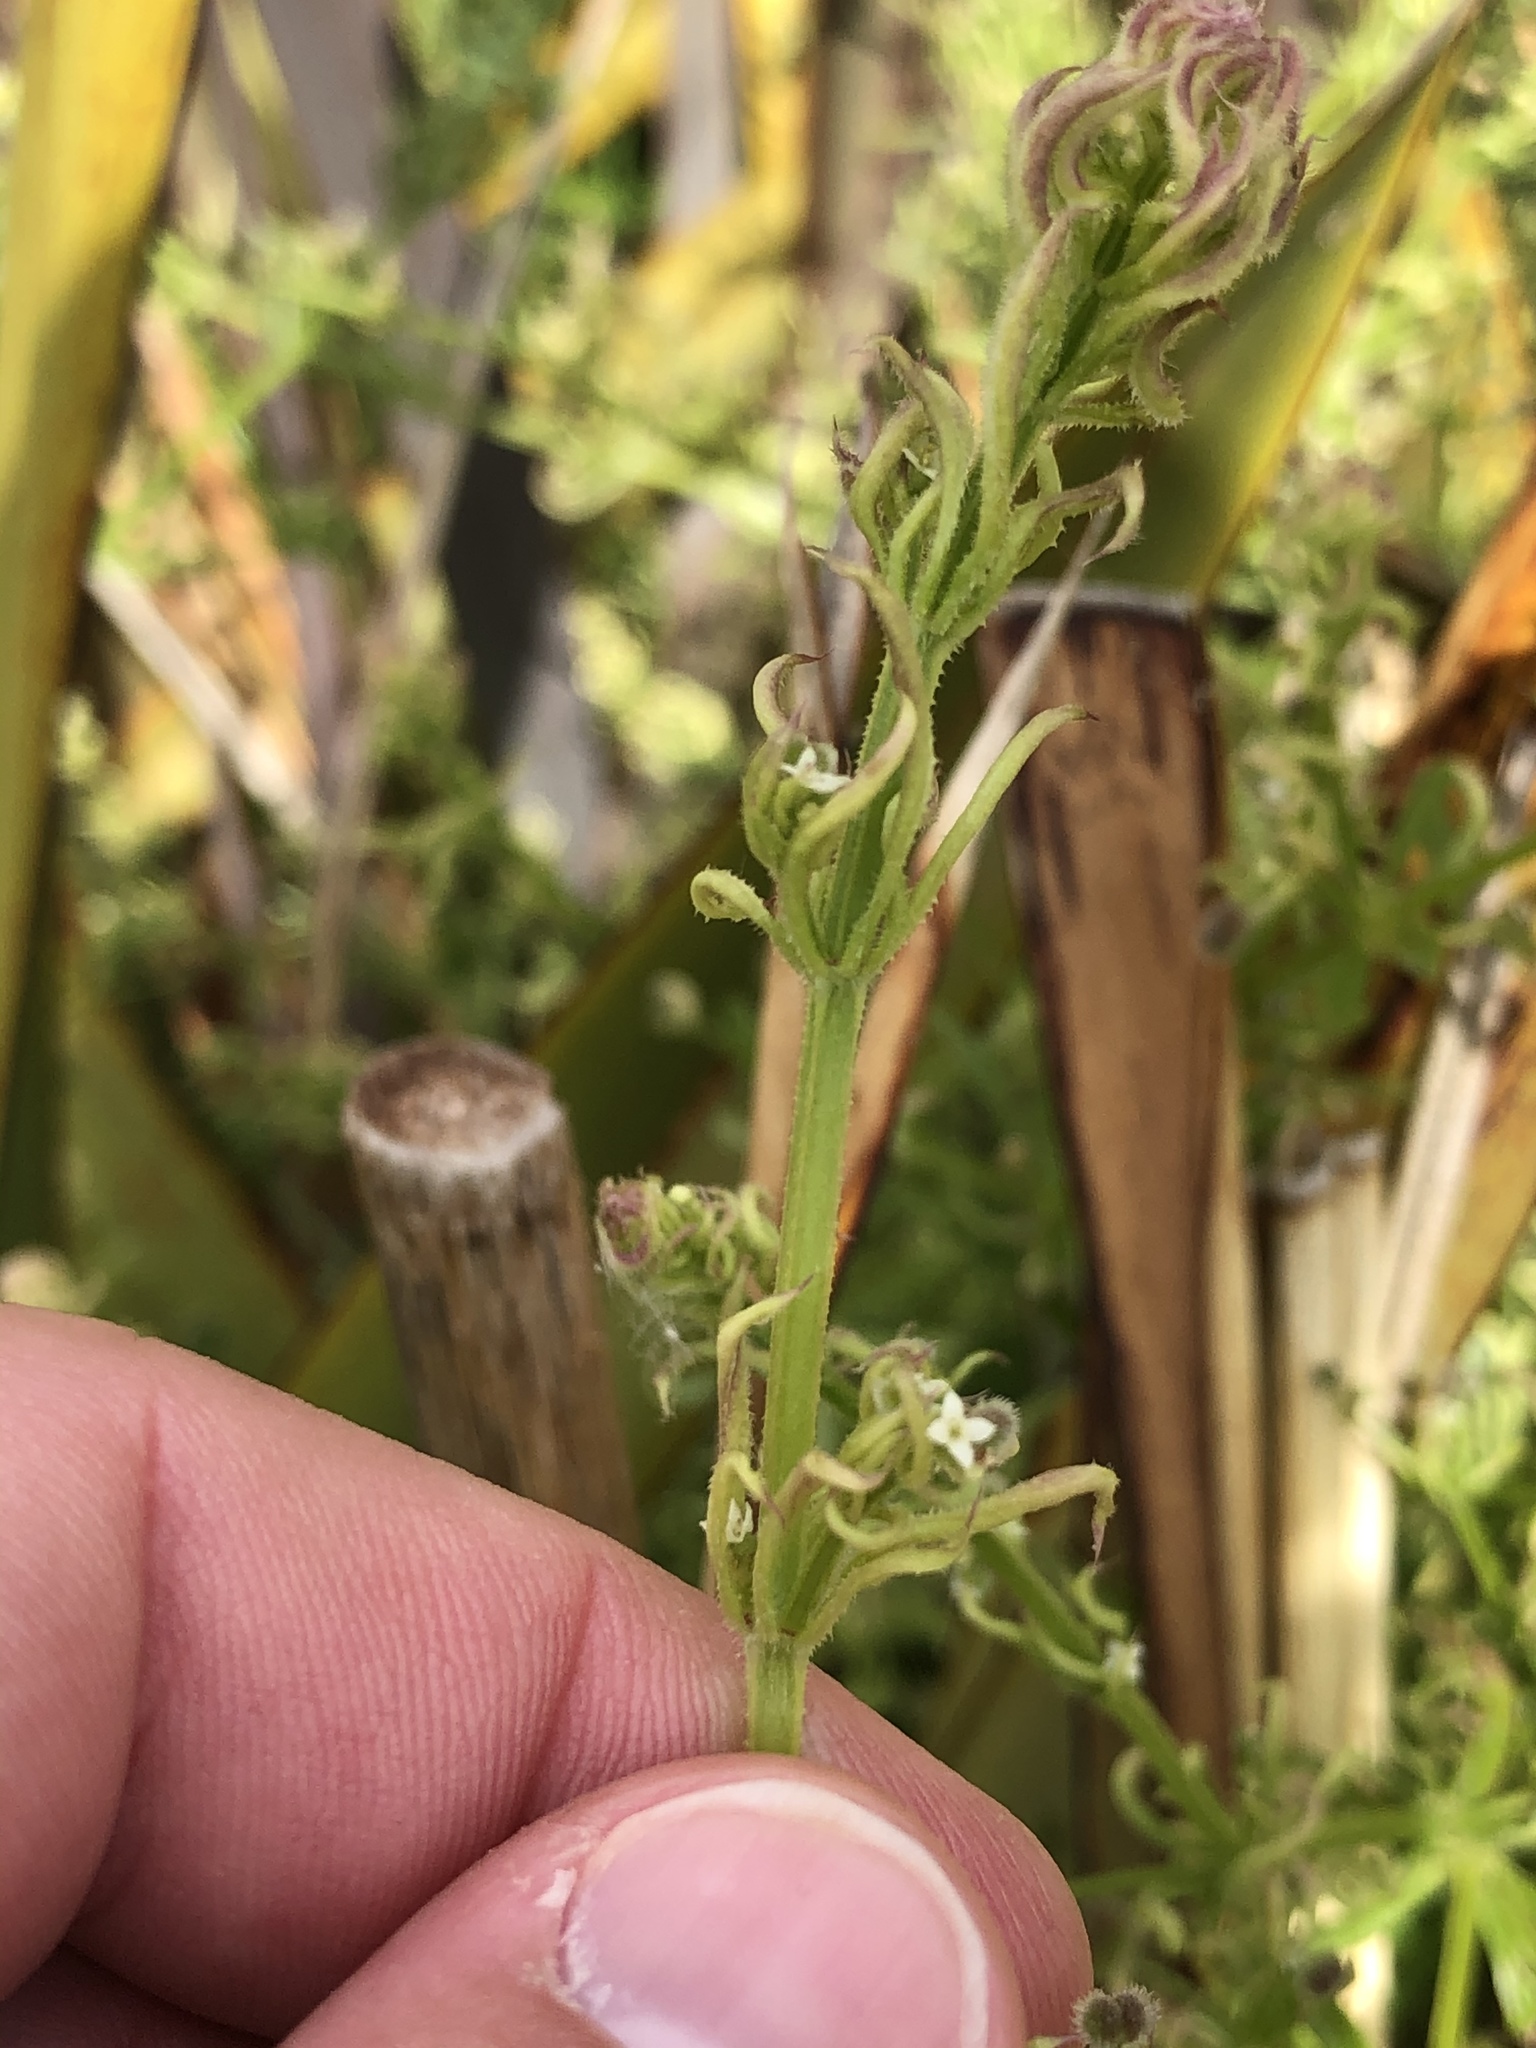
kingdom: Plantae
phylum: Tracheophyta
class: Magnoliopsida
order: Gentianales
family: Rubiaceae
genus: Galium
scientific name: Galium aparine
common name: Cleavers
